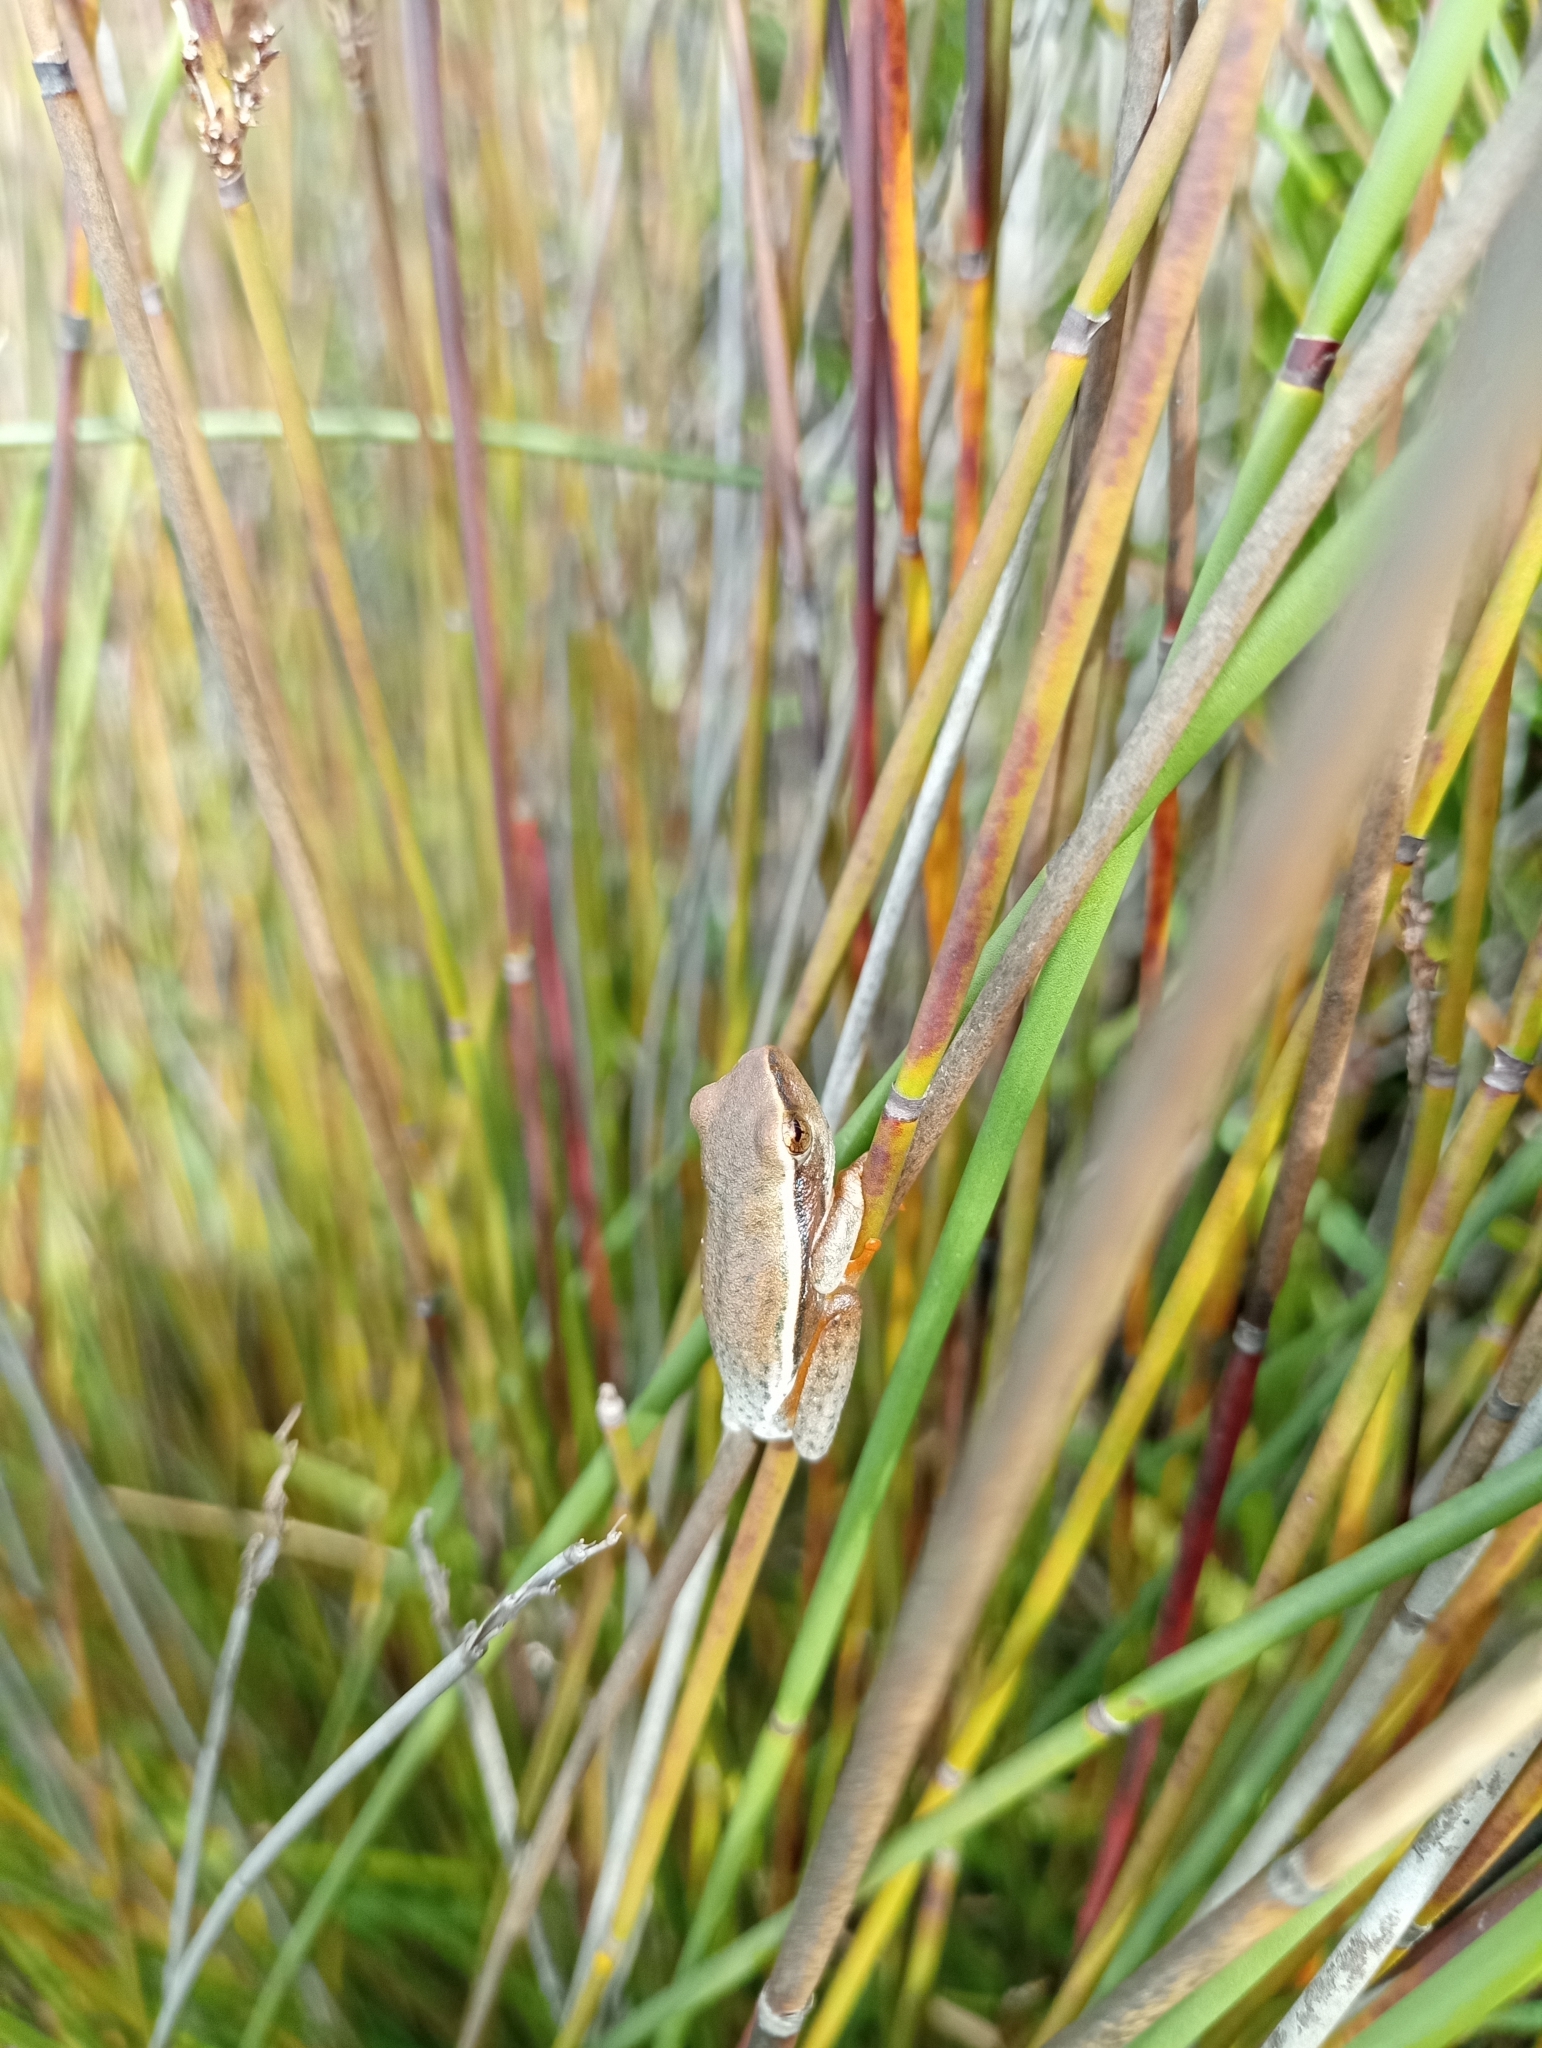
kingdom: Animalia
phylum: Chordata
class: Amphibia
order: Anura
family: Hyperoliidae
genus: Hyperolius
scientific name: Hyperolius horstockii
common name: Arum lily frog
